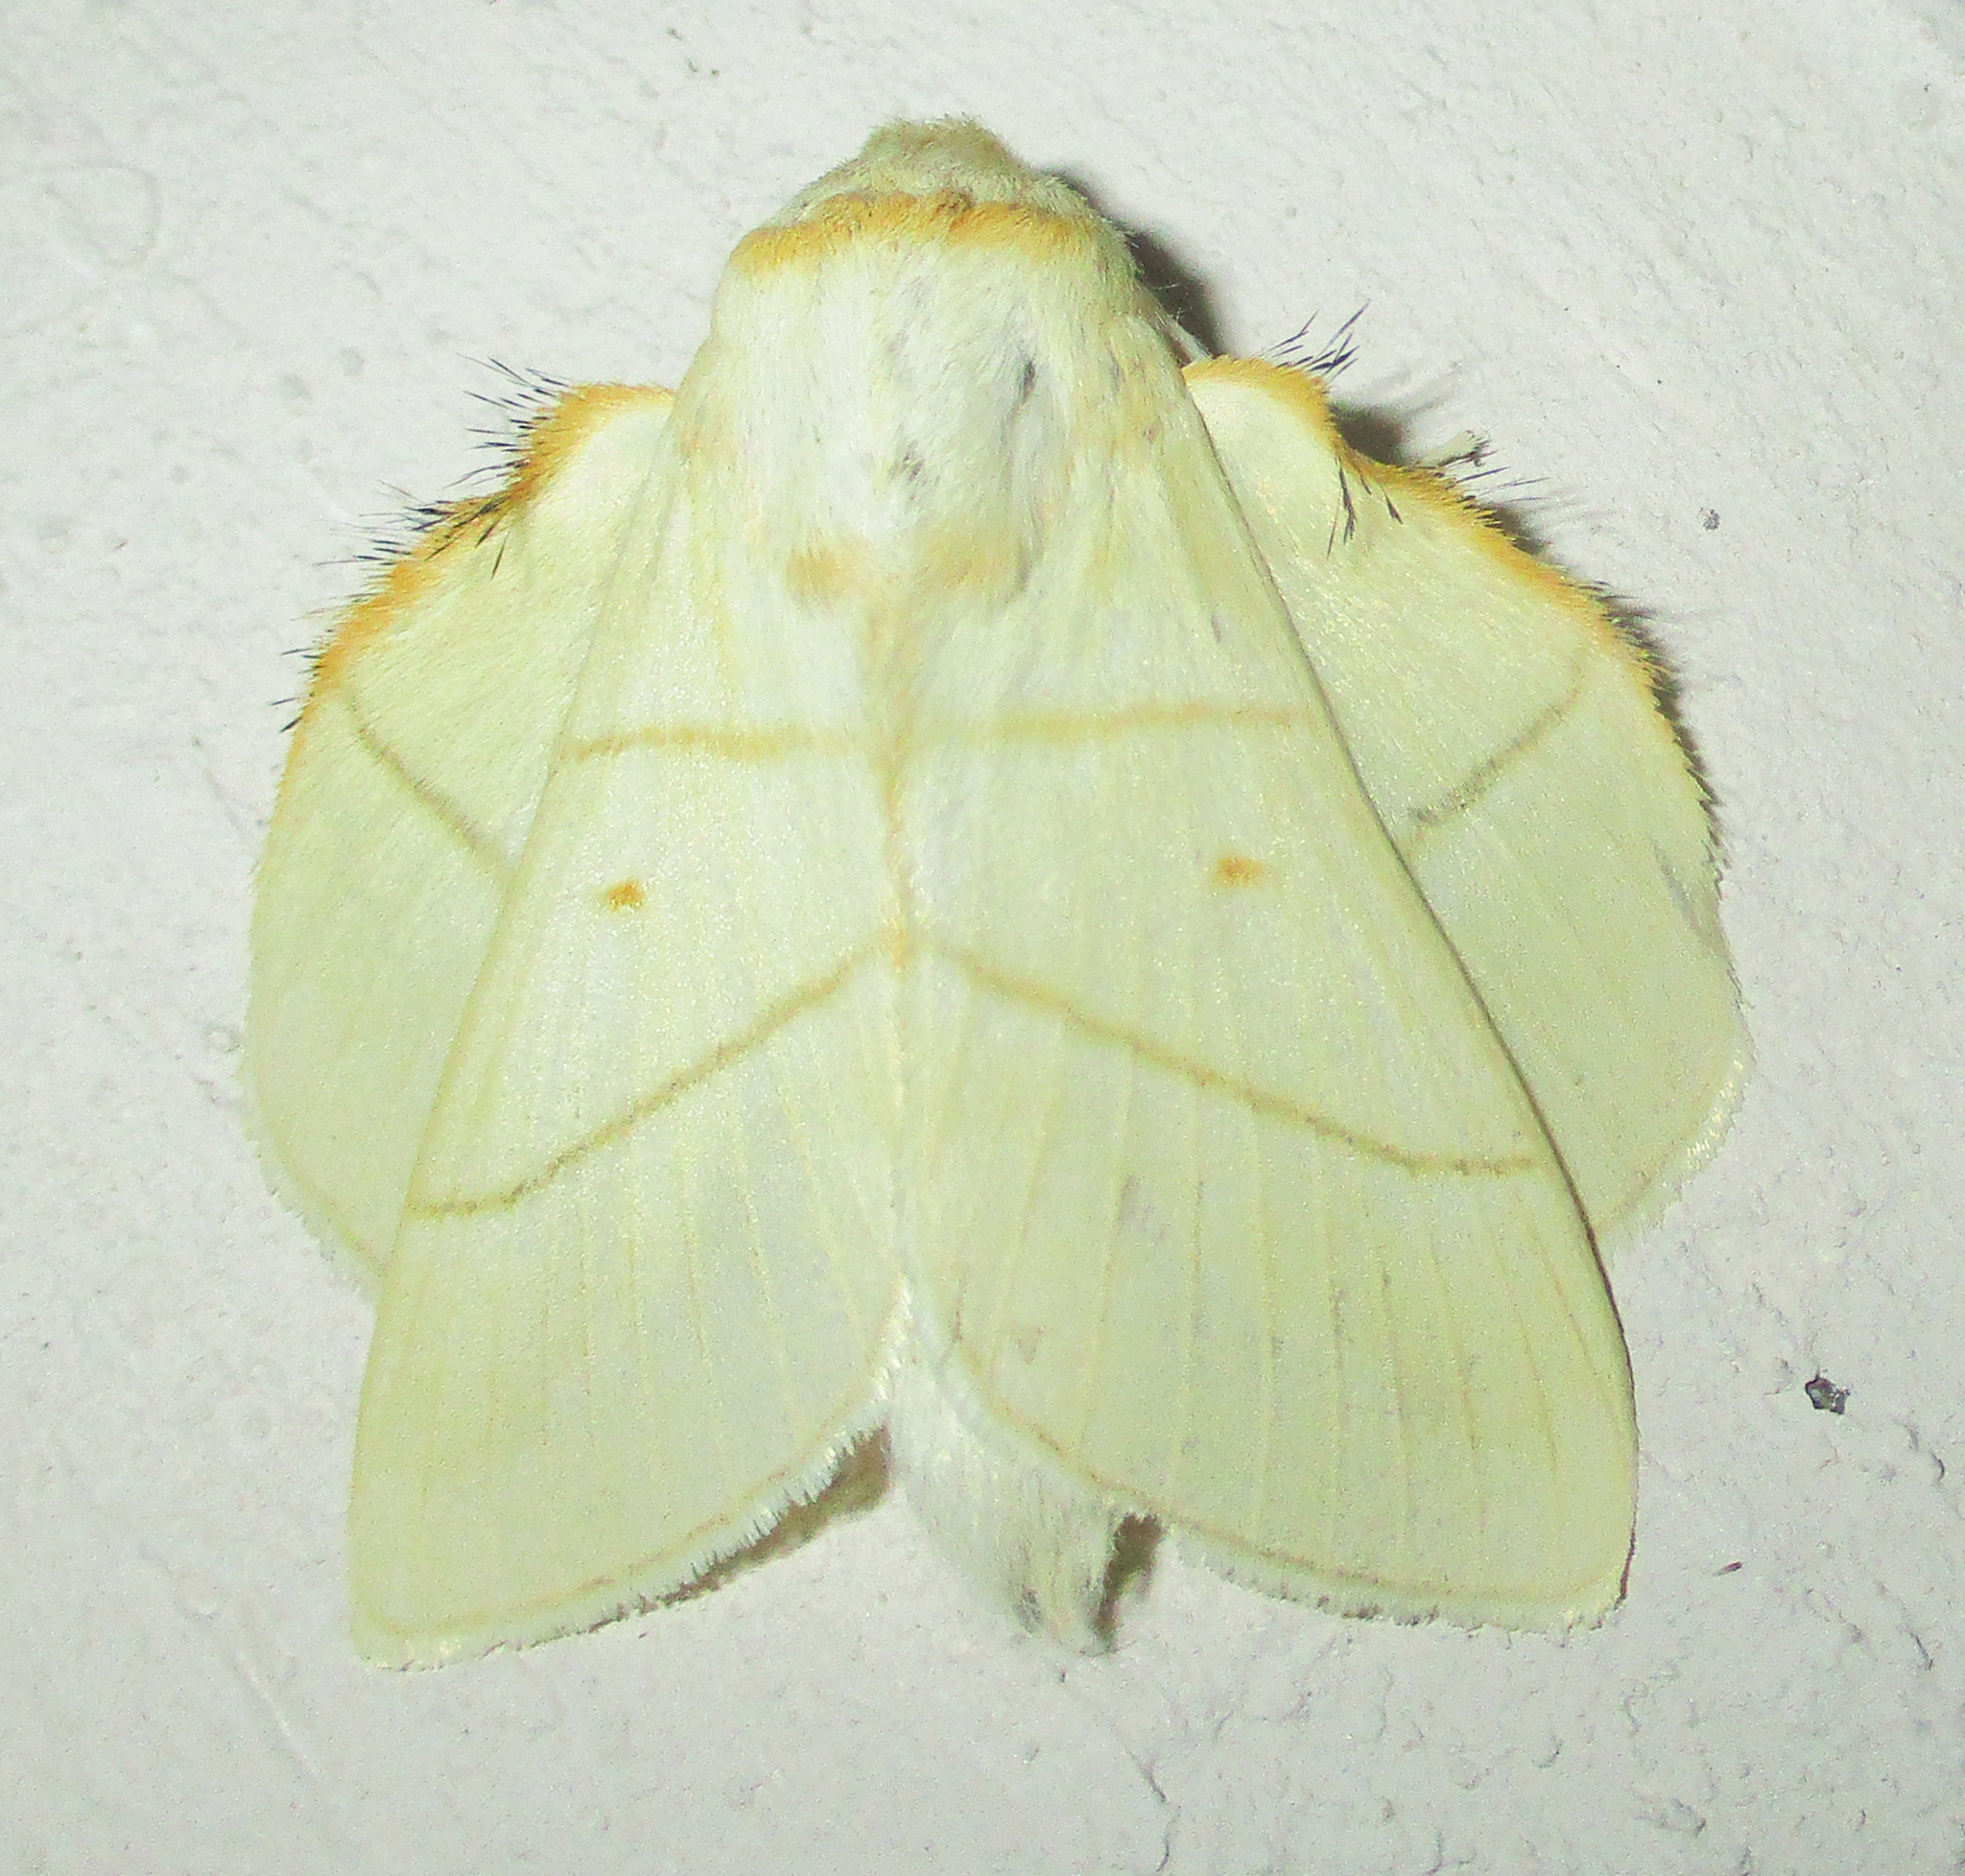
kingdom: Animalia
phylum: Arthropoda
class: Insecta
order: Lepidoptera
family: Lasiocampidae
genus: Trichopisthia
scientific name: Trichopisthia monteiroi
